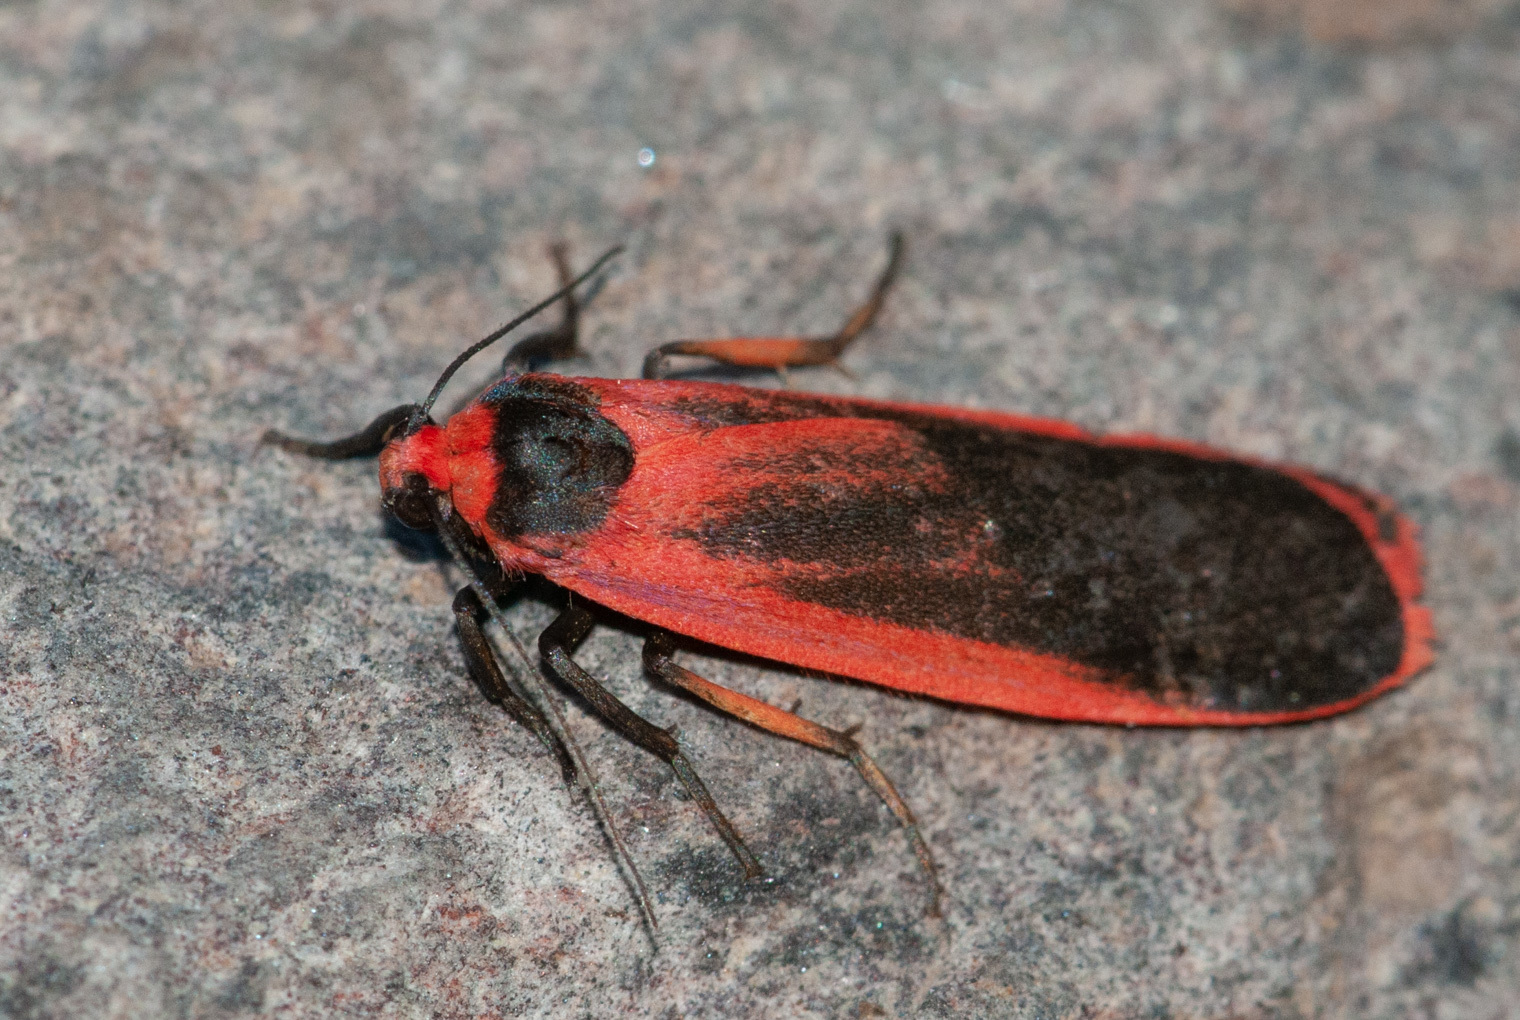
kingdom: Animalia
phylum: Arthropoda
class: Insecta
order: Lepidoptera
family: Erebidae
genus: Scoliacma
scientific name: Scoliacma bicolora
